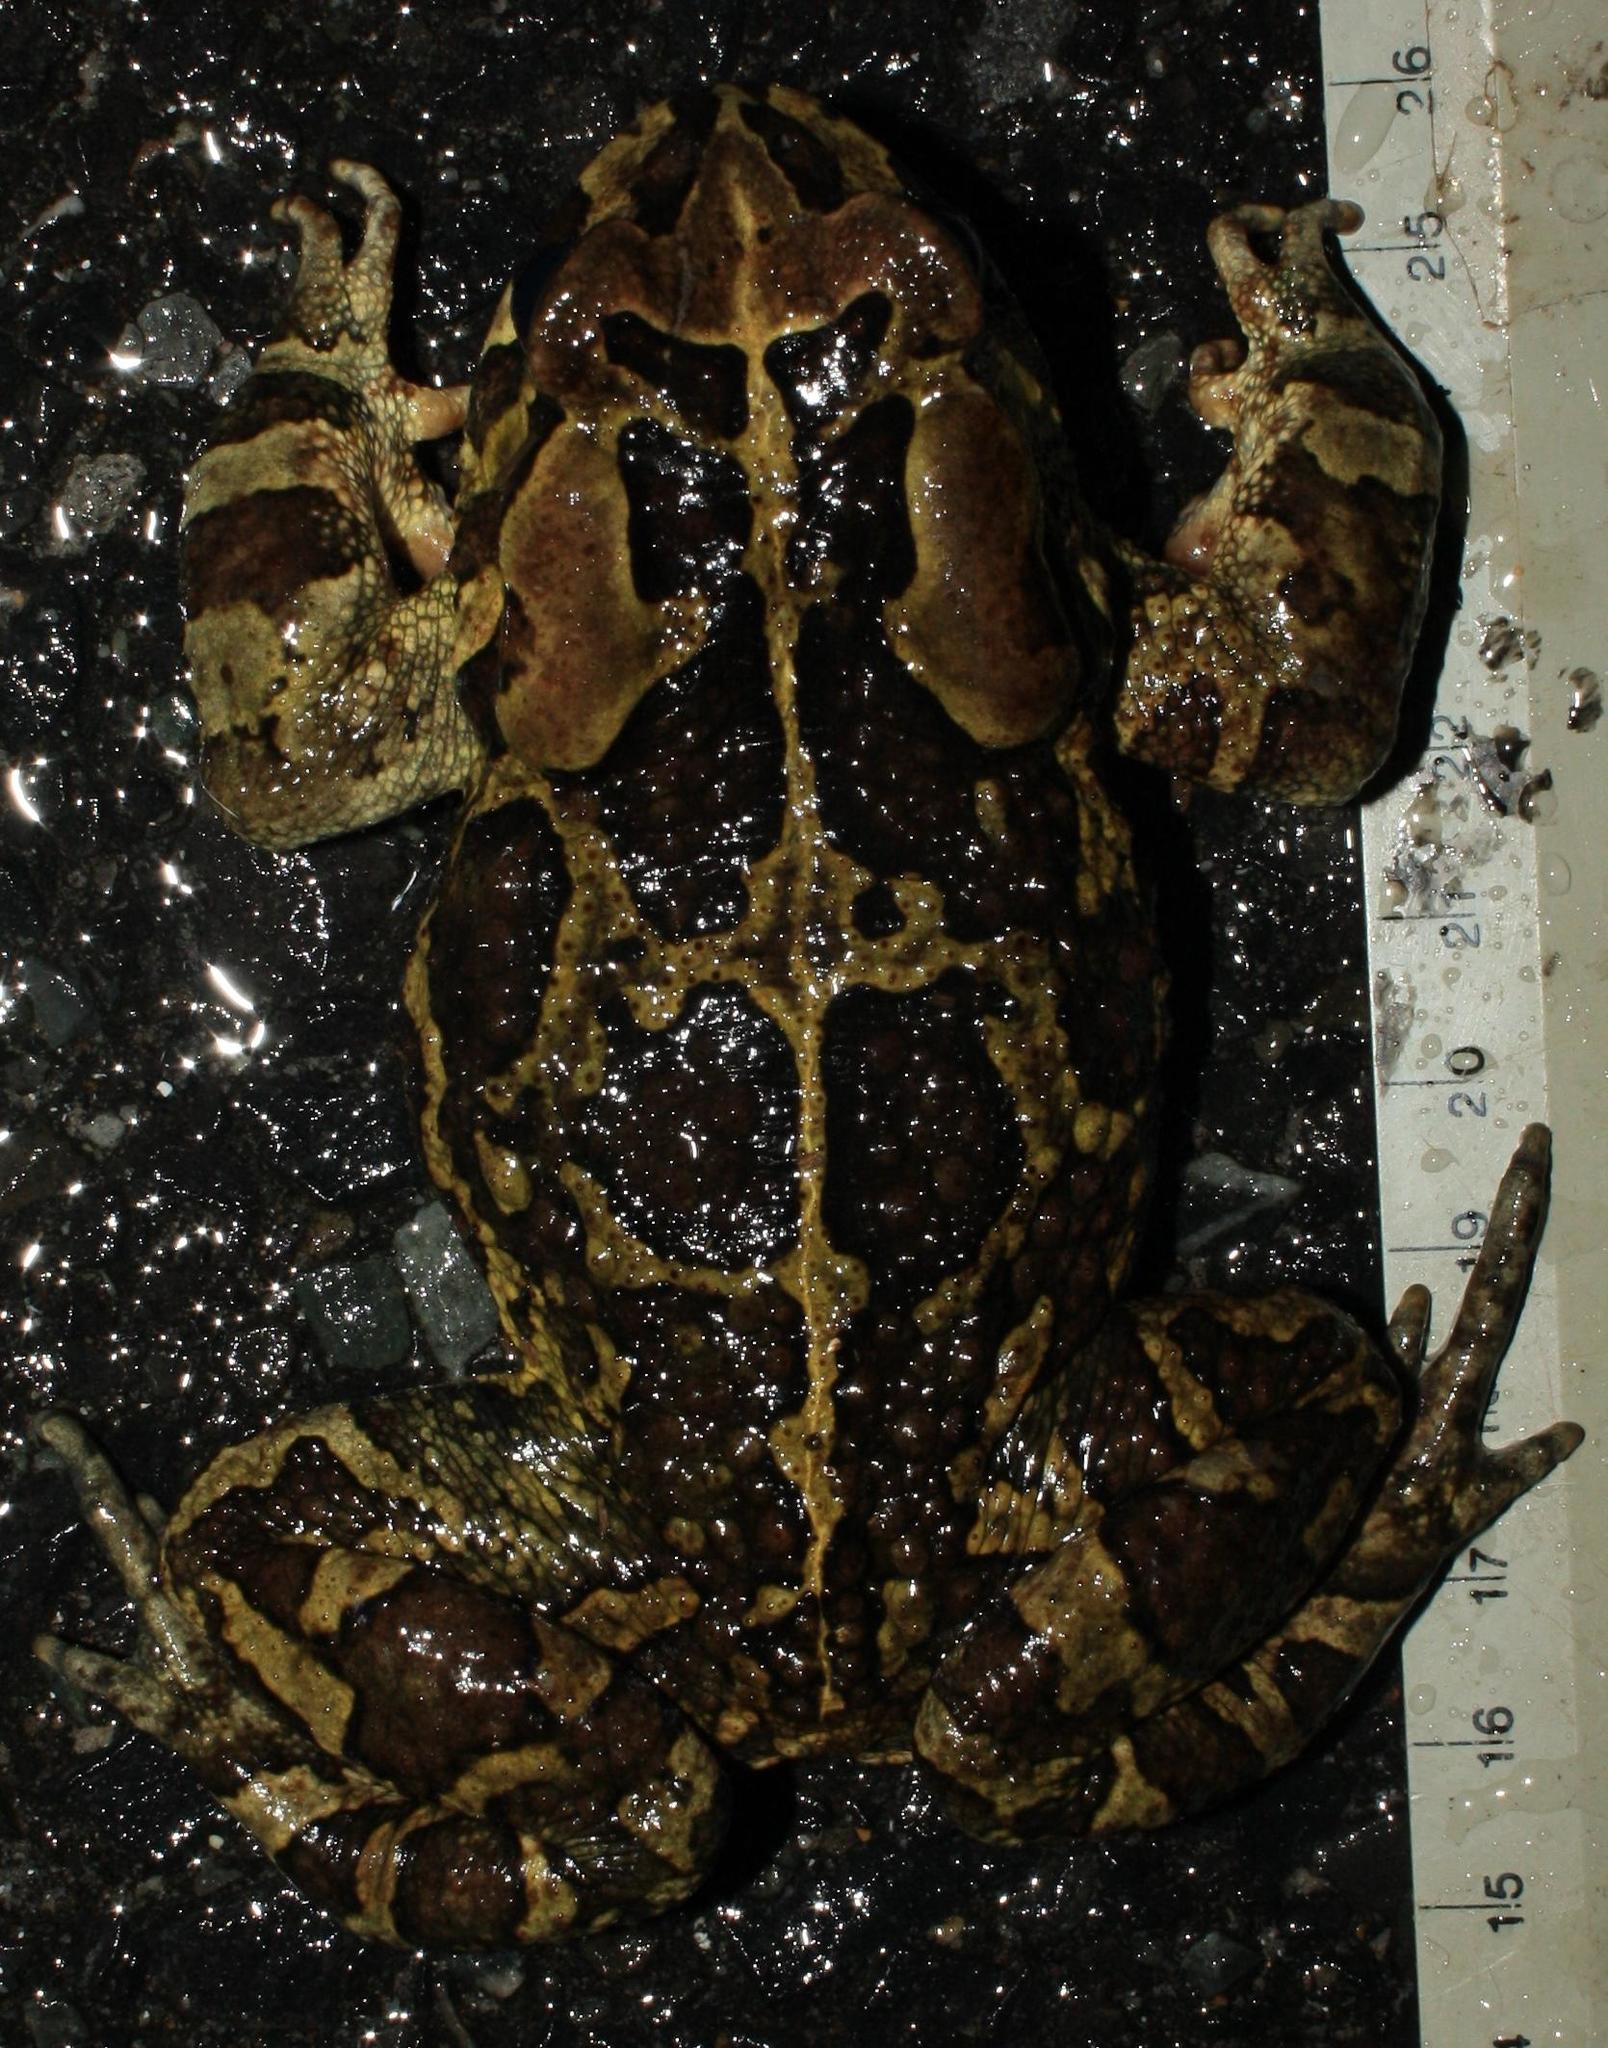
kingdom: Animalia
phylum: Chordata
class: Amphibia
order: Anura
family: Bufonidae
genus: Sclerophrys
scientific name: Sclerophrys pantherina
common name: Panther toad
